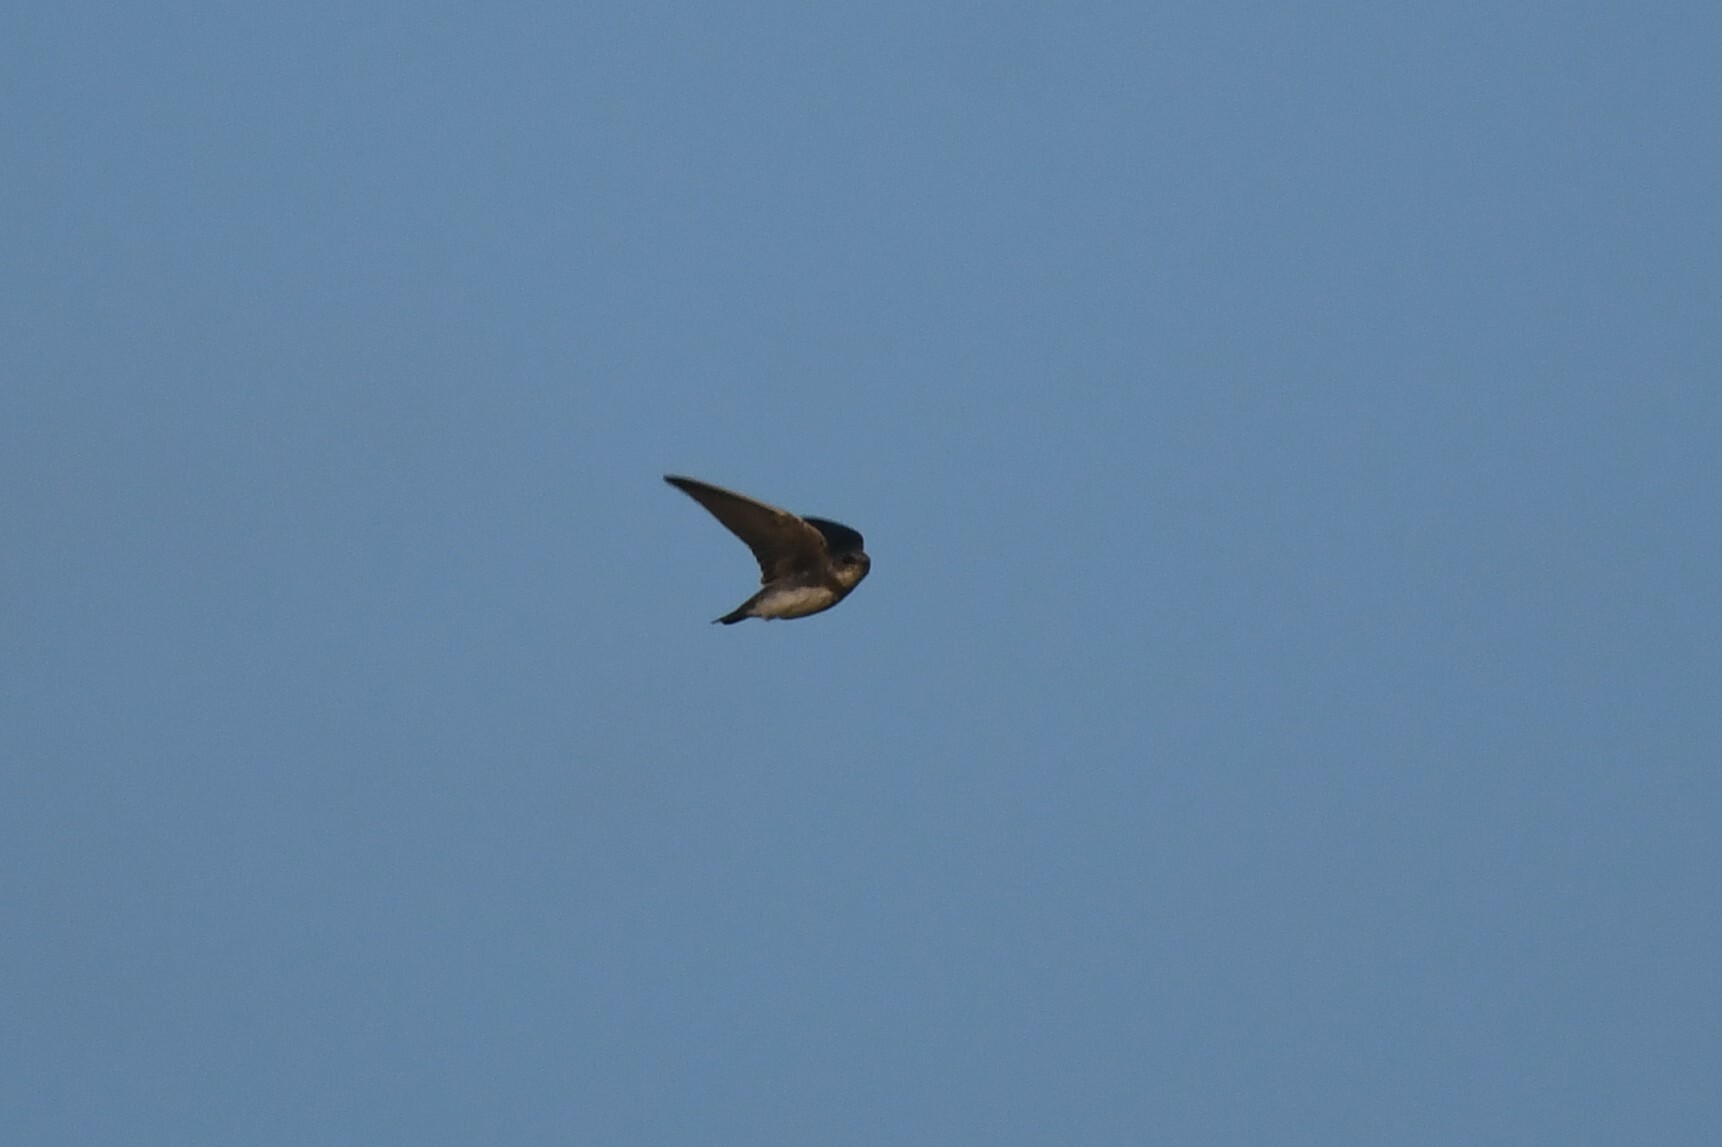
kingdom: Animalia
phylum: Chordata
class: Aves
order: Passeriformes
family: Hirundinidae
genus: Riparia
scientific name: Riparia riparia
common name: Sand martin
